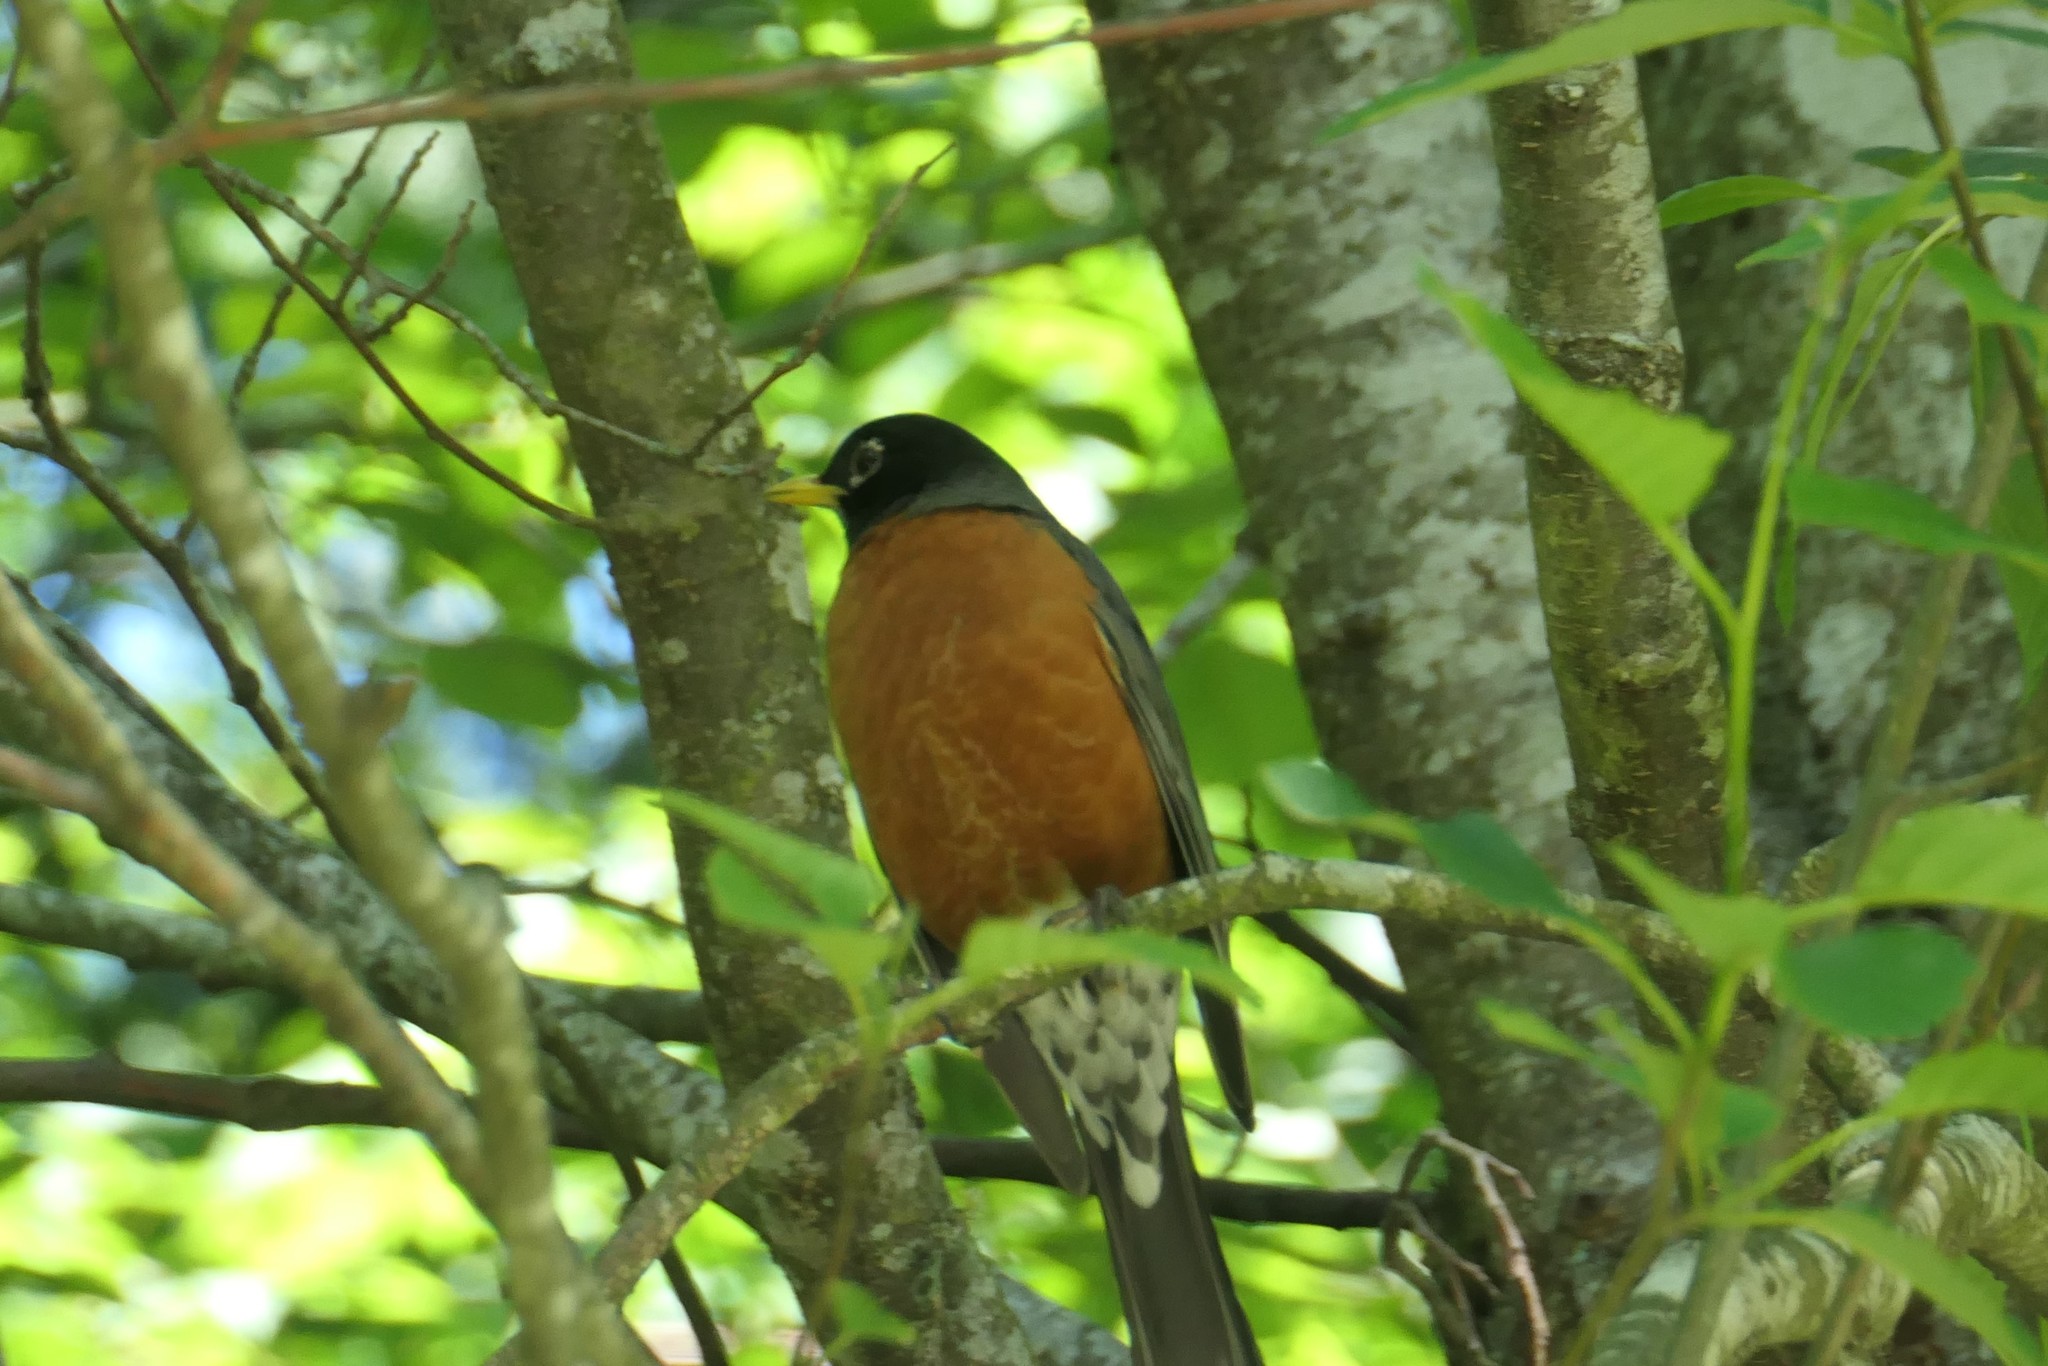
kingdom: Animalia
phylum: Chordata
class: Aves
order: Passeriformes
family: Turdidae
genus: Turdus
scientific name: Turdus migratorius
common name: American robin
